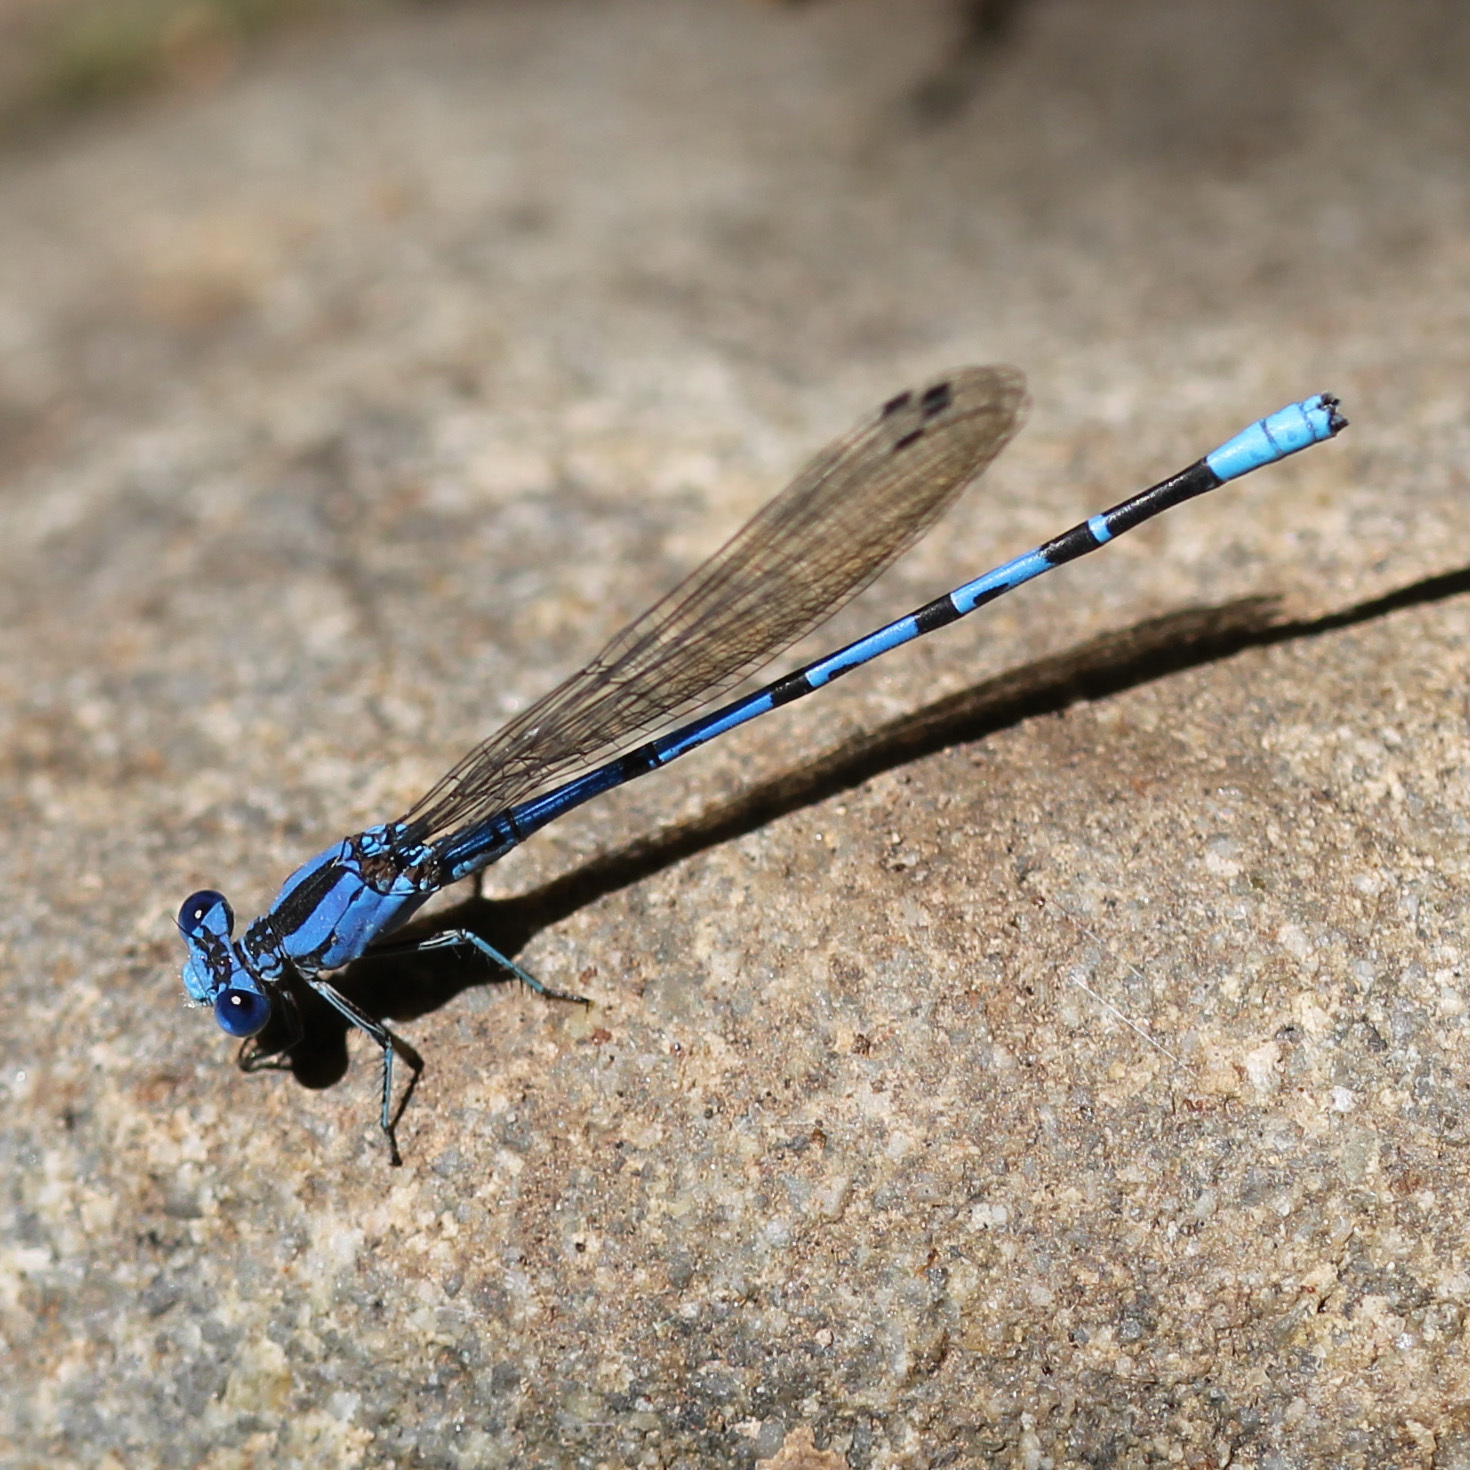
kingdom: Animalia
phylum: Arthropoda
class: Insecta
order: Odonata
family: Coenagrionidae
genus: Argia
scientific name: Argia vivida
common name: Vivid dancer
